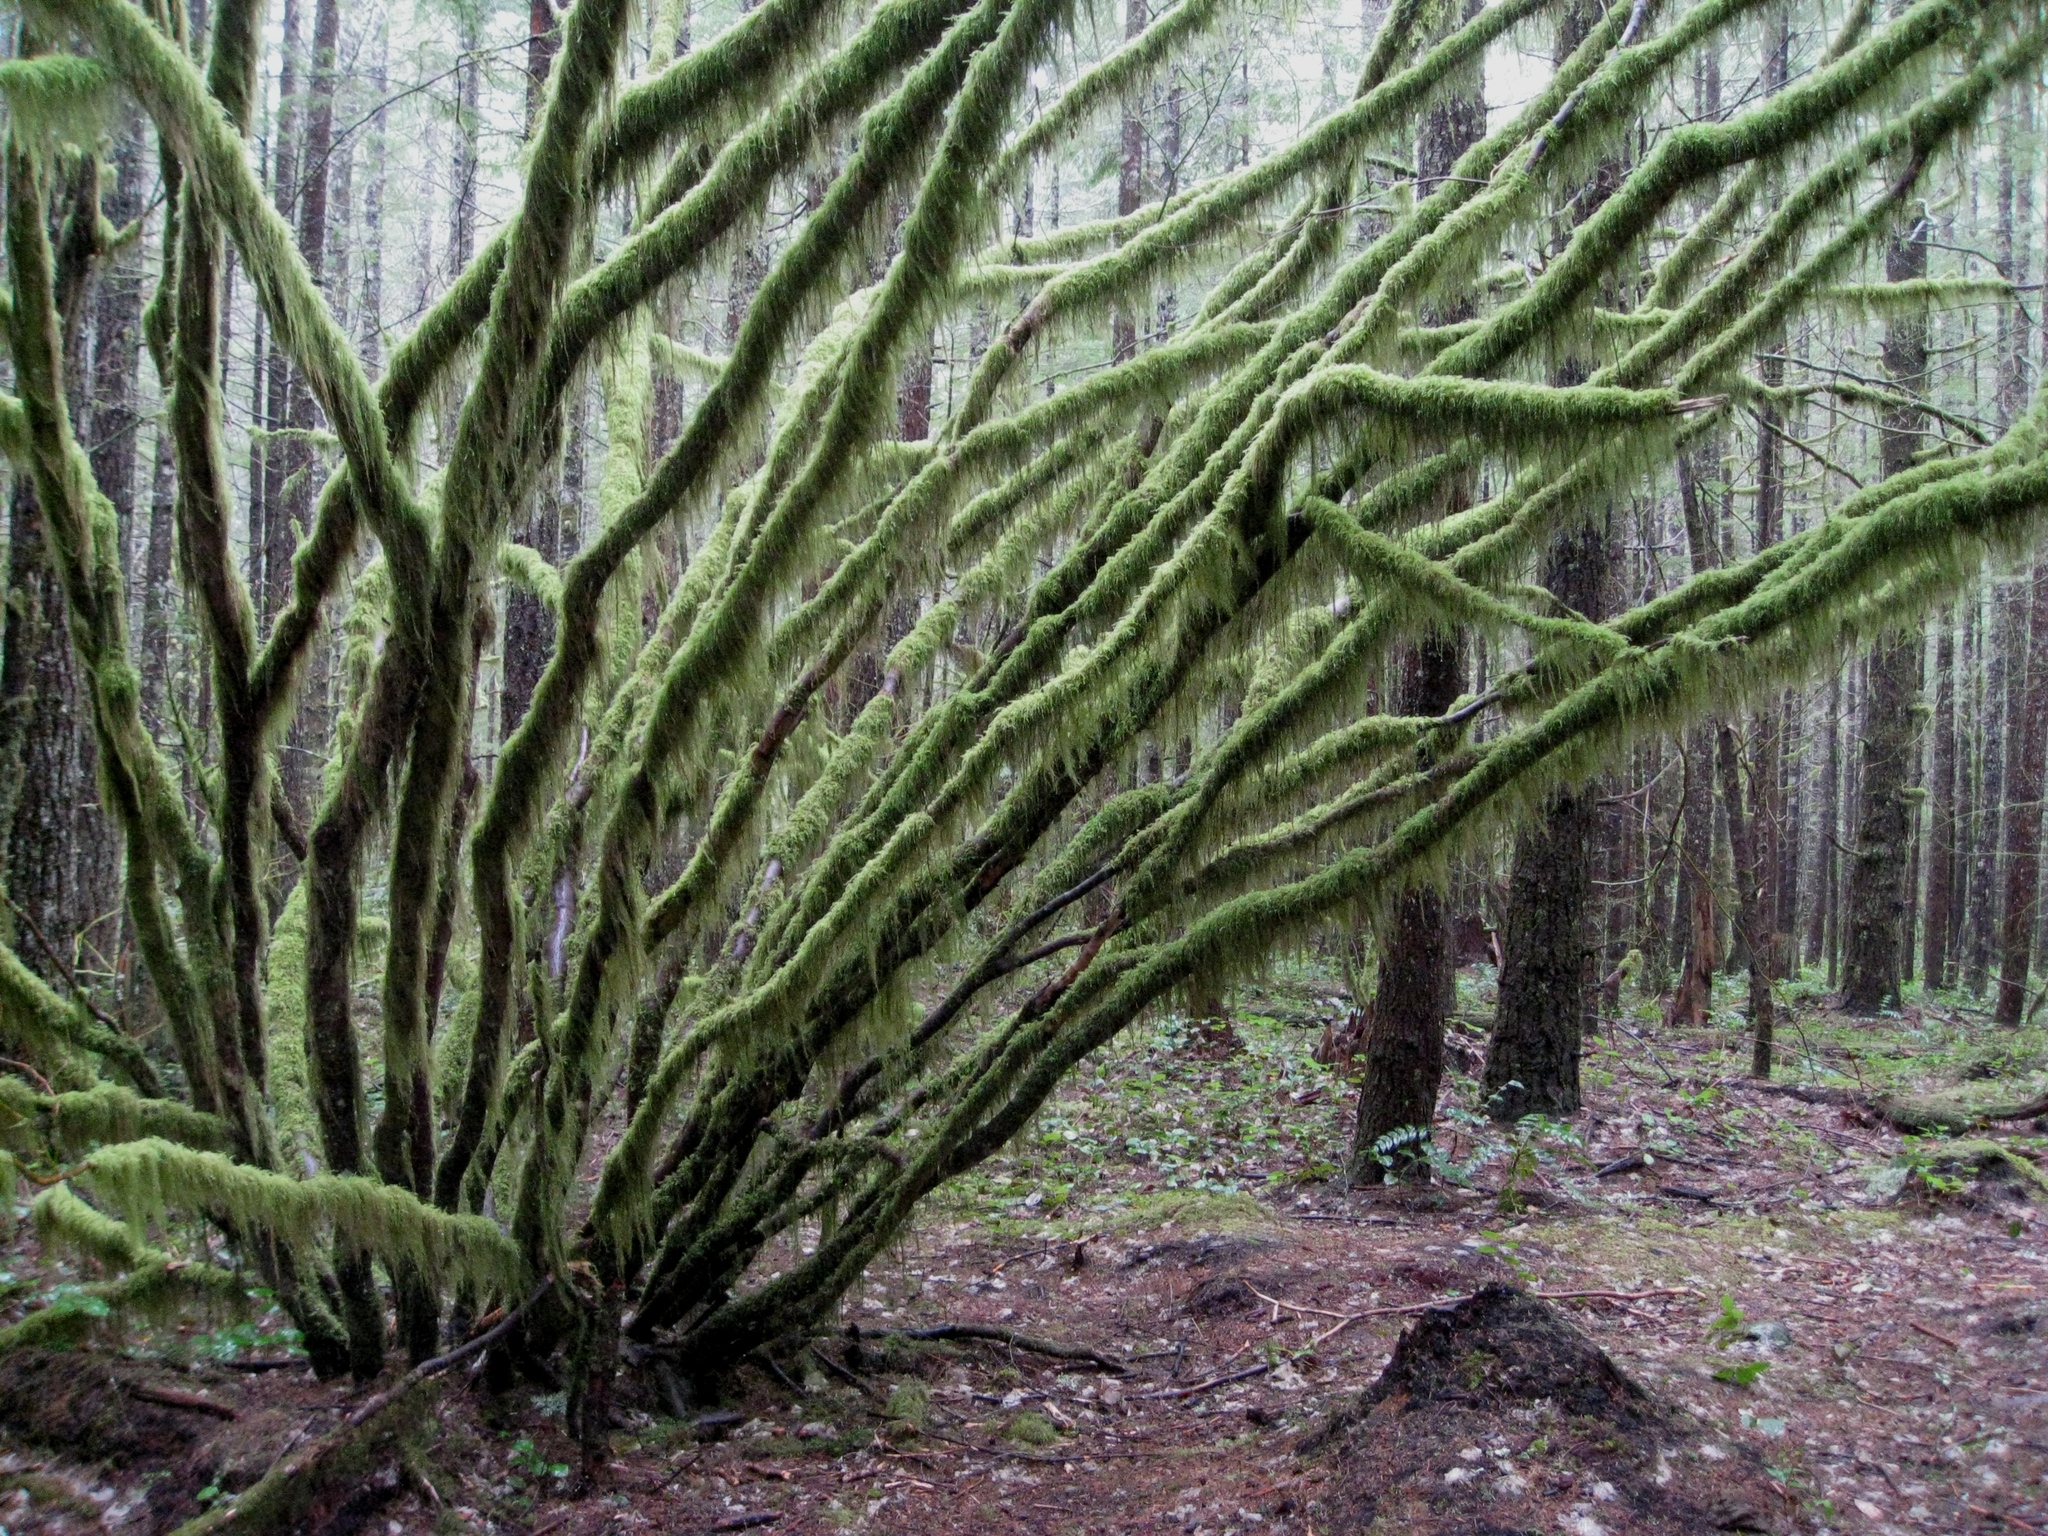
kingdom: Plantae
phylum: Tracheophyta
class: Magnoliopsida
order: Sapindales
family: Sapindaceae
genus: Acer
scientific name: Acer circinatum
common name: Vine maple
